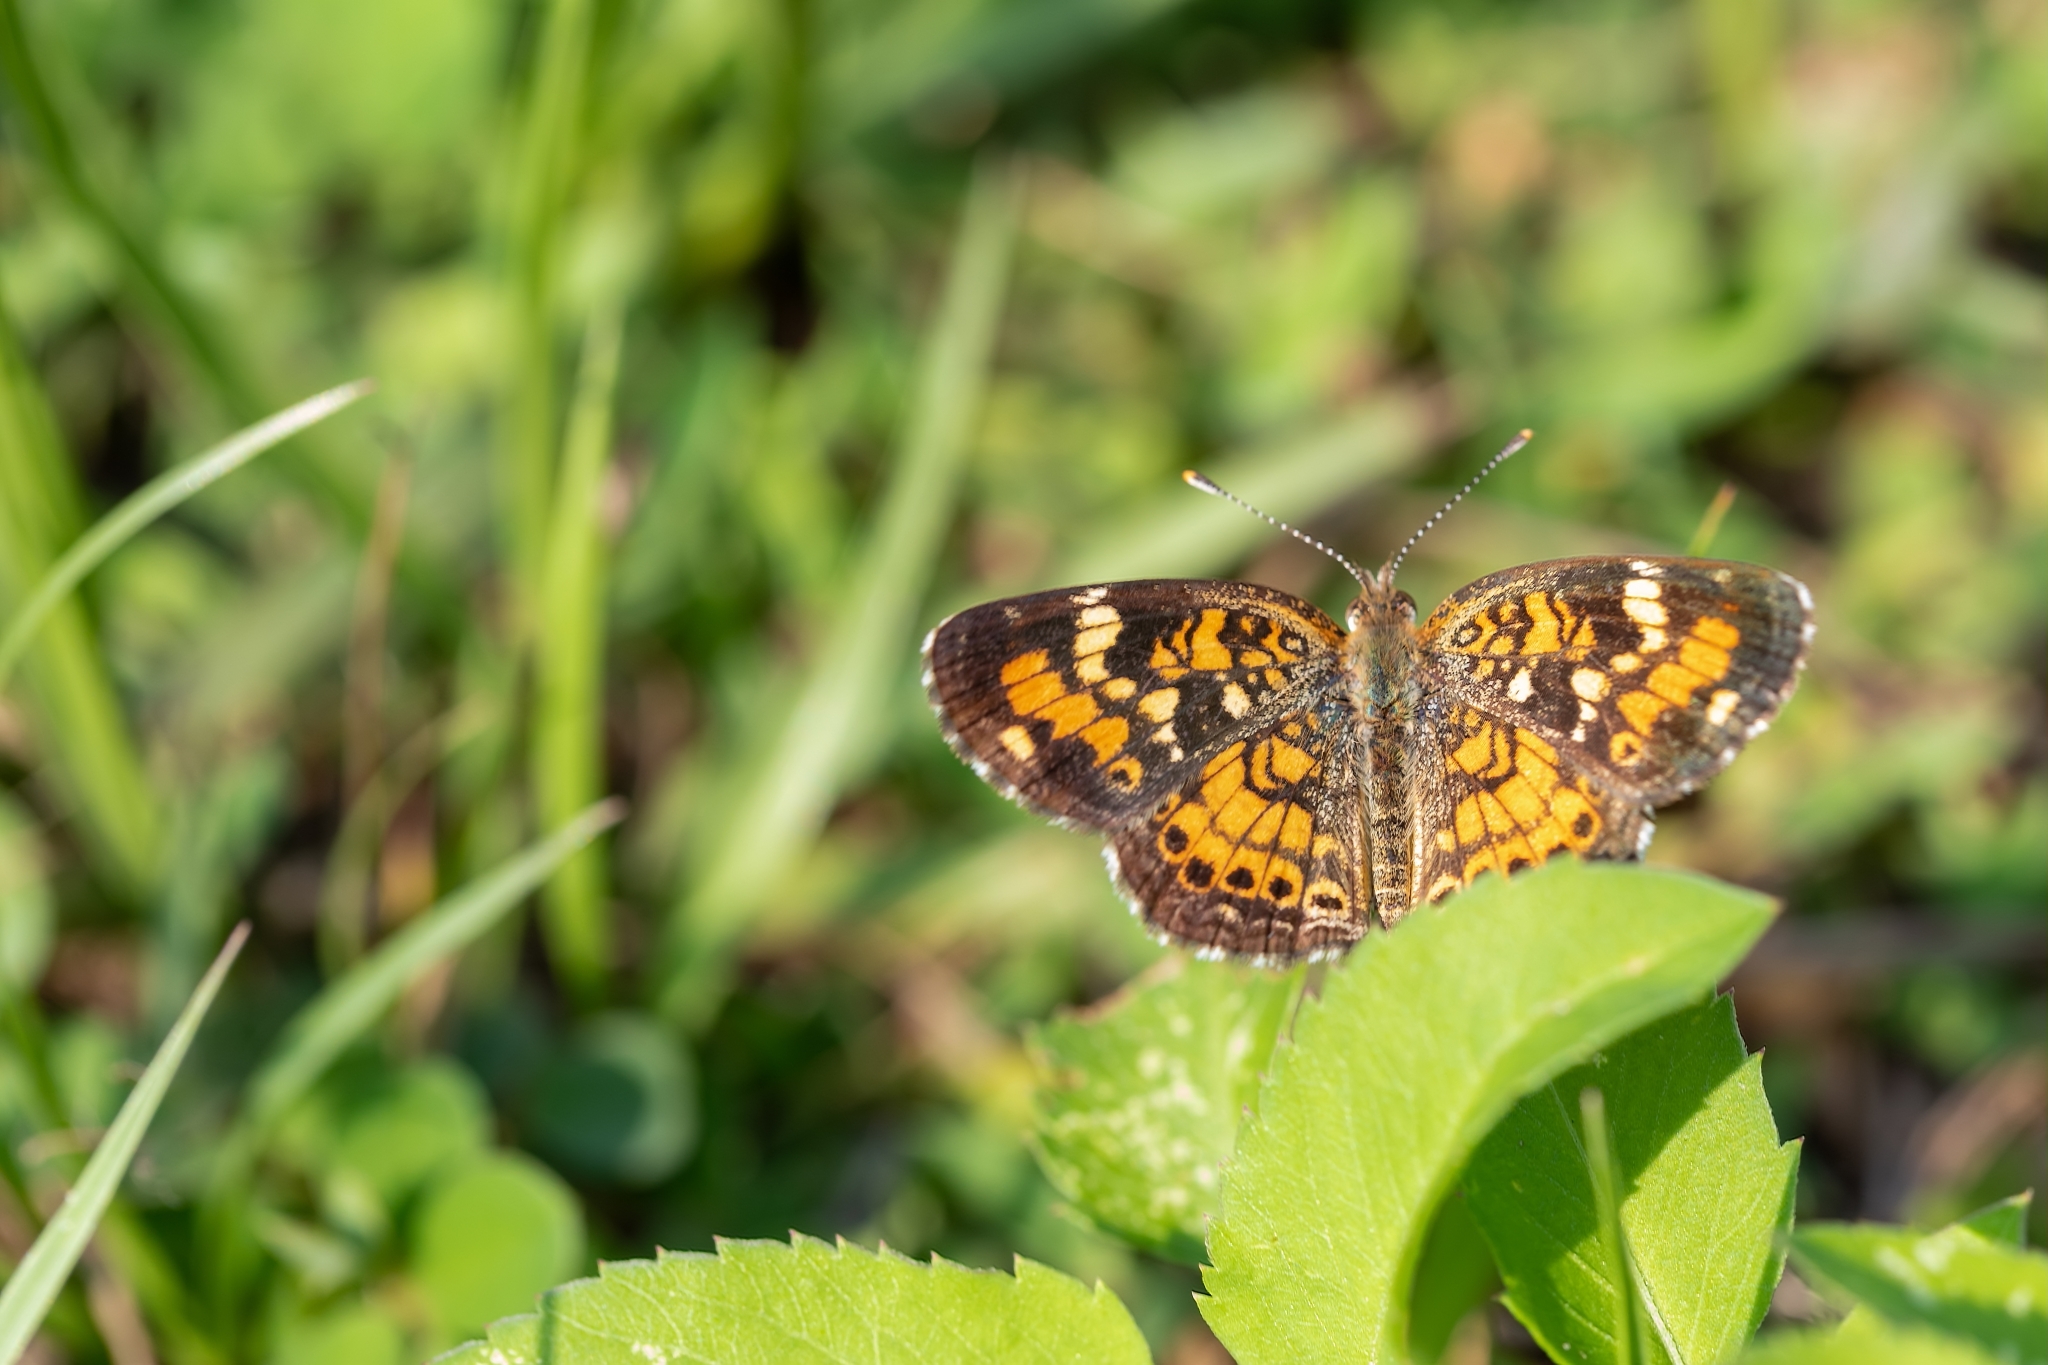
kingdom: Animalia
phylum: Arthropoda
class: Insecta
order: Lepidoptera
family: Nymphalidae
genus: Phyciodes
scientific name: Phyciodes phaon
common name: Phaon crescent
